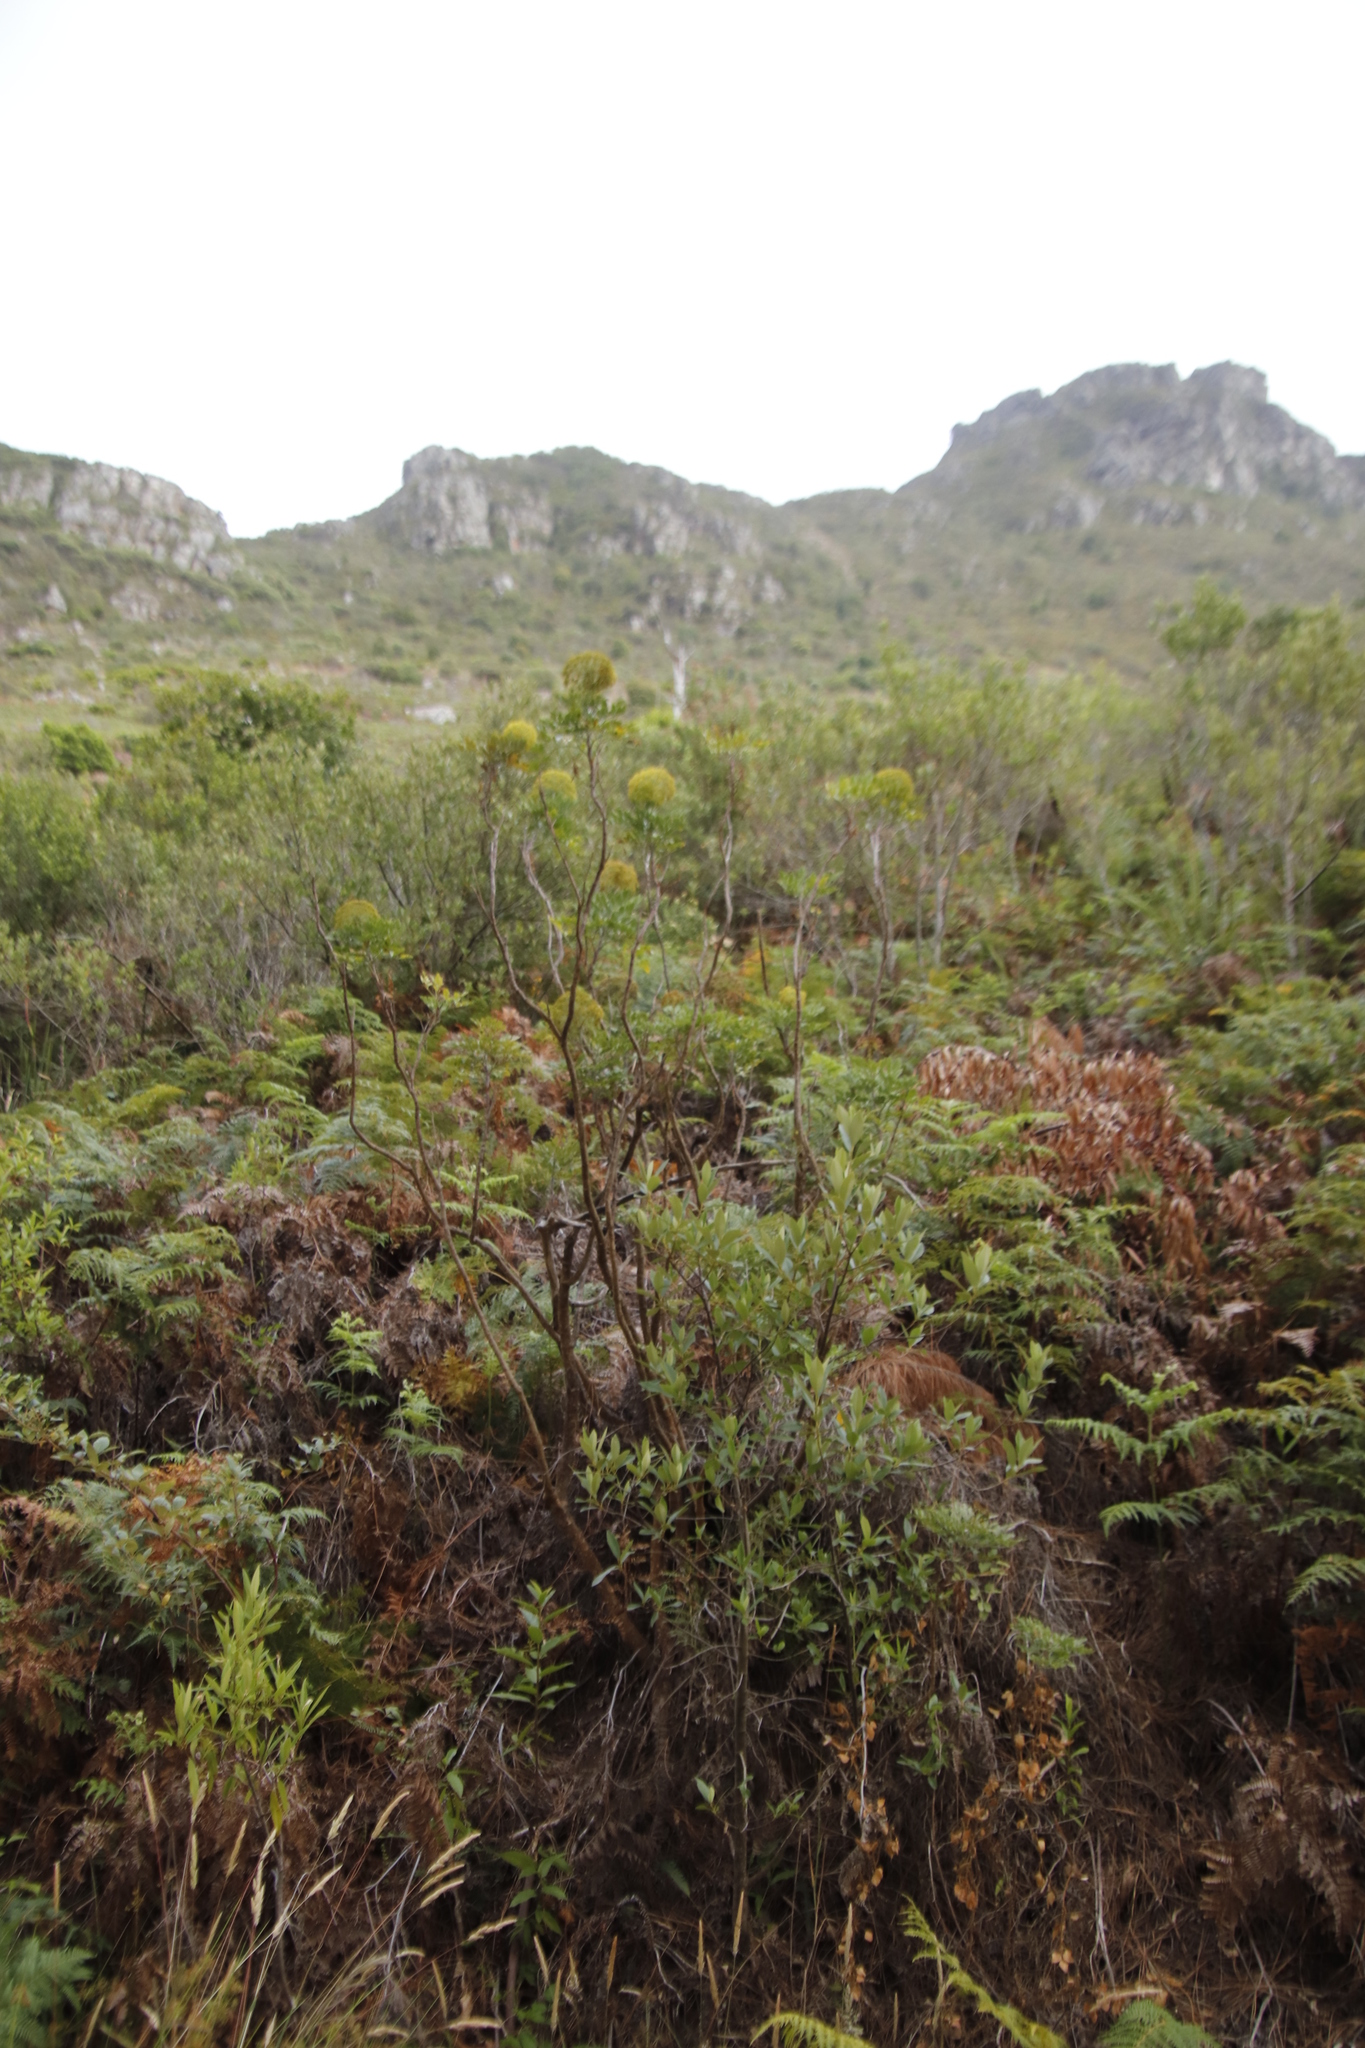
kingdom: Plantae
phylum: Tracheophyta
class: Magnoliopsida
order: Apiales
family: Apiaceae
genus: Notobubon
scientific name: Notobubon galbanum
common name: Blisterbush
